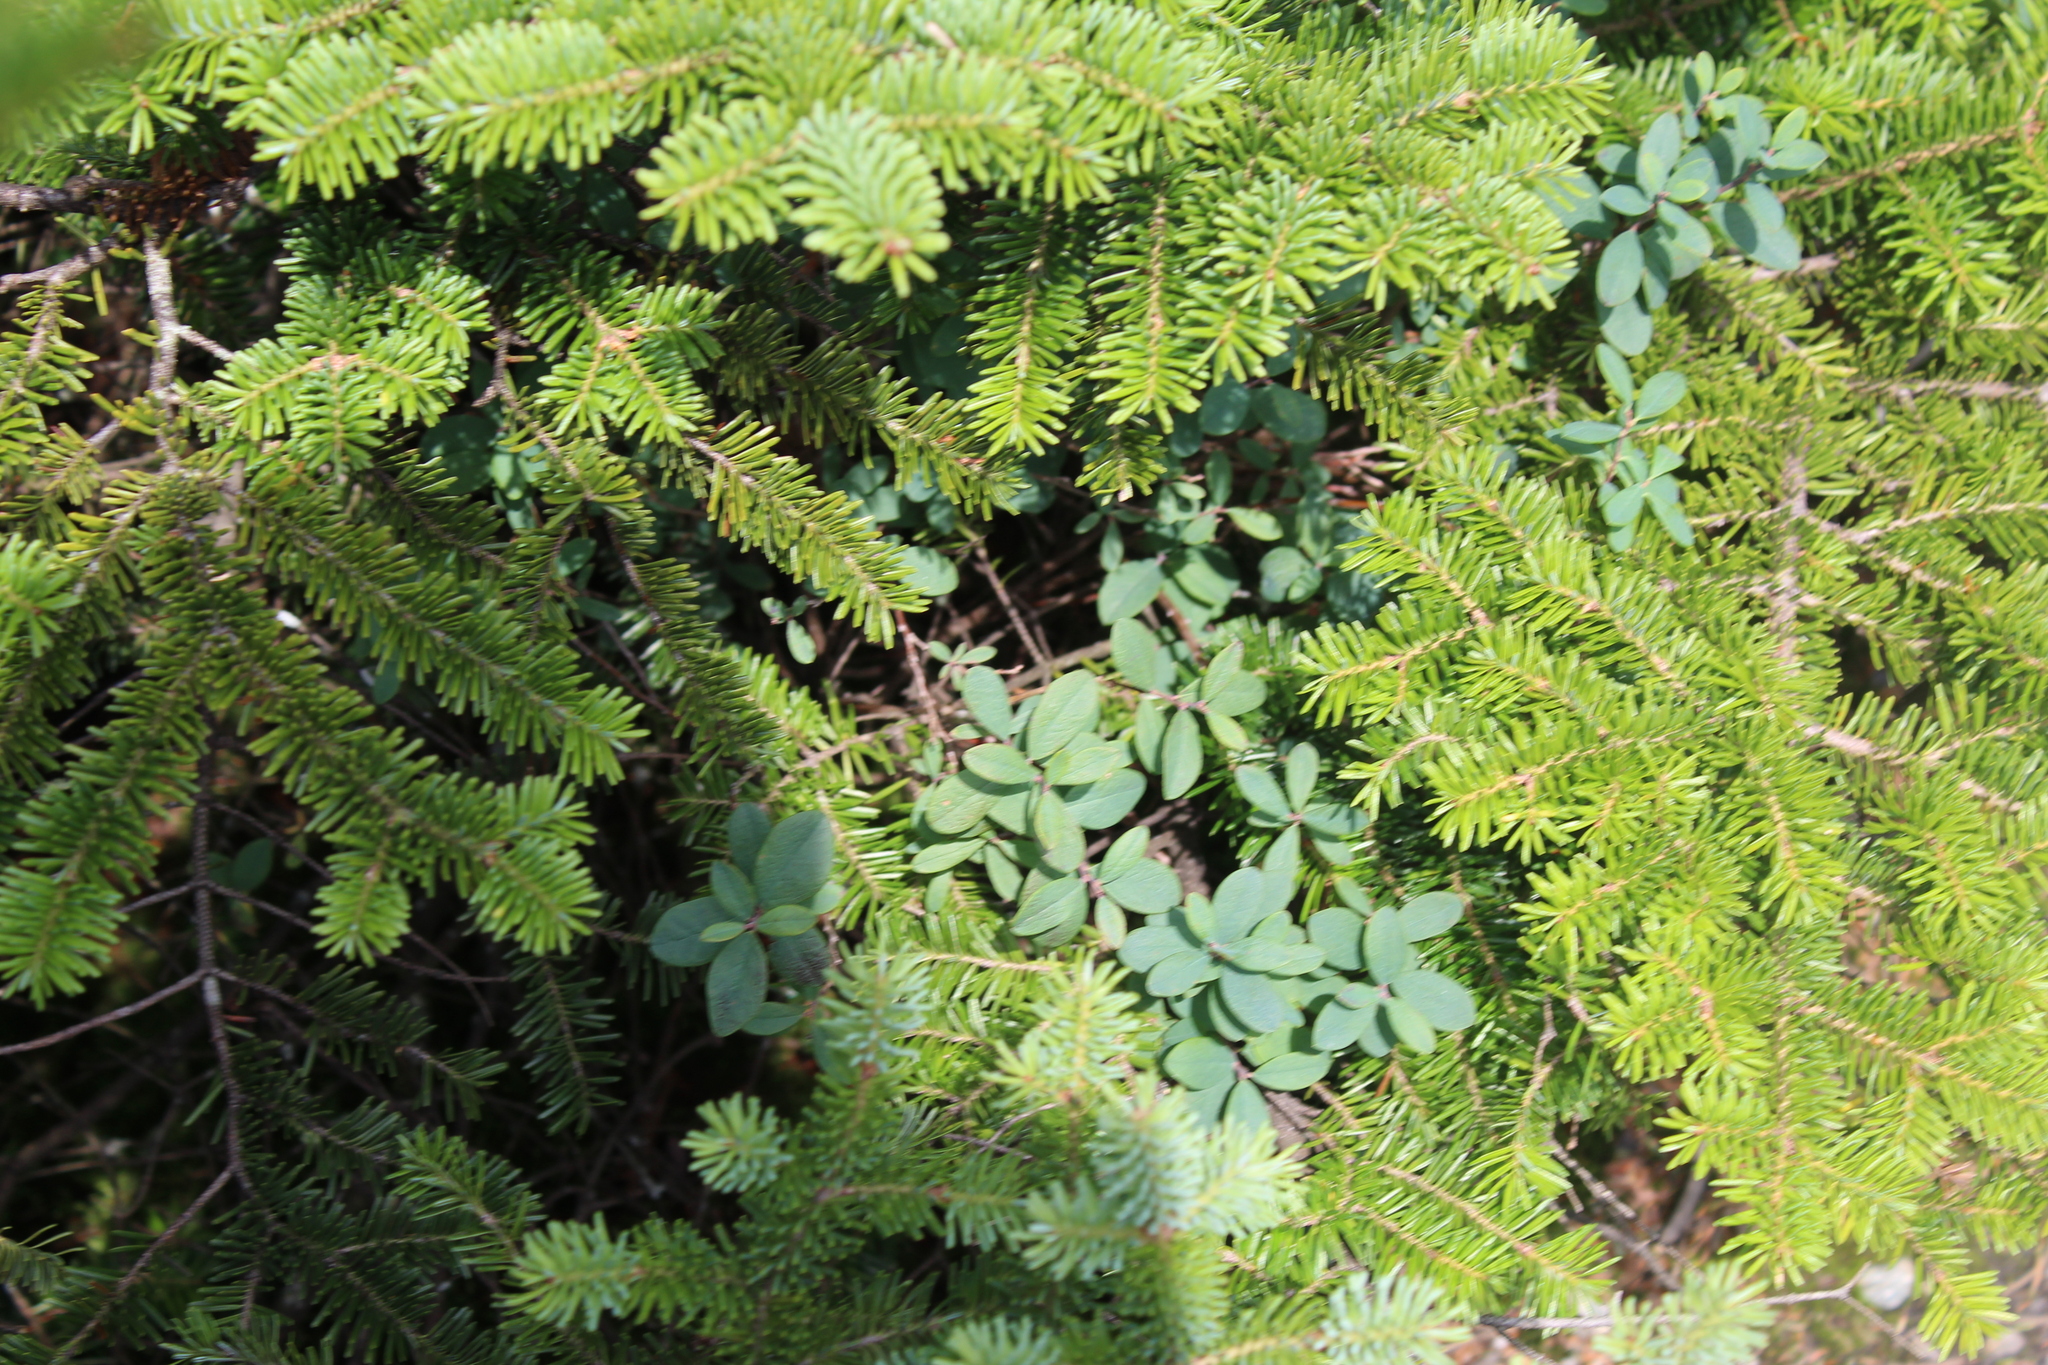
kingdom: Plantae
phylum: Tracheophyta
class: Magnoliopsida
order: Ericales
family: Ericaceae
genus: Vaccinium
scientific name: Vaccinium uliginosum
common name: Bog bilberry
